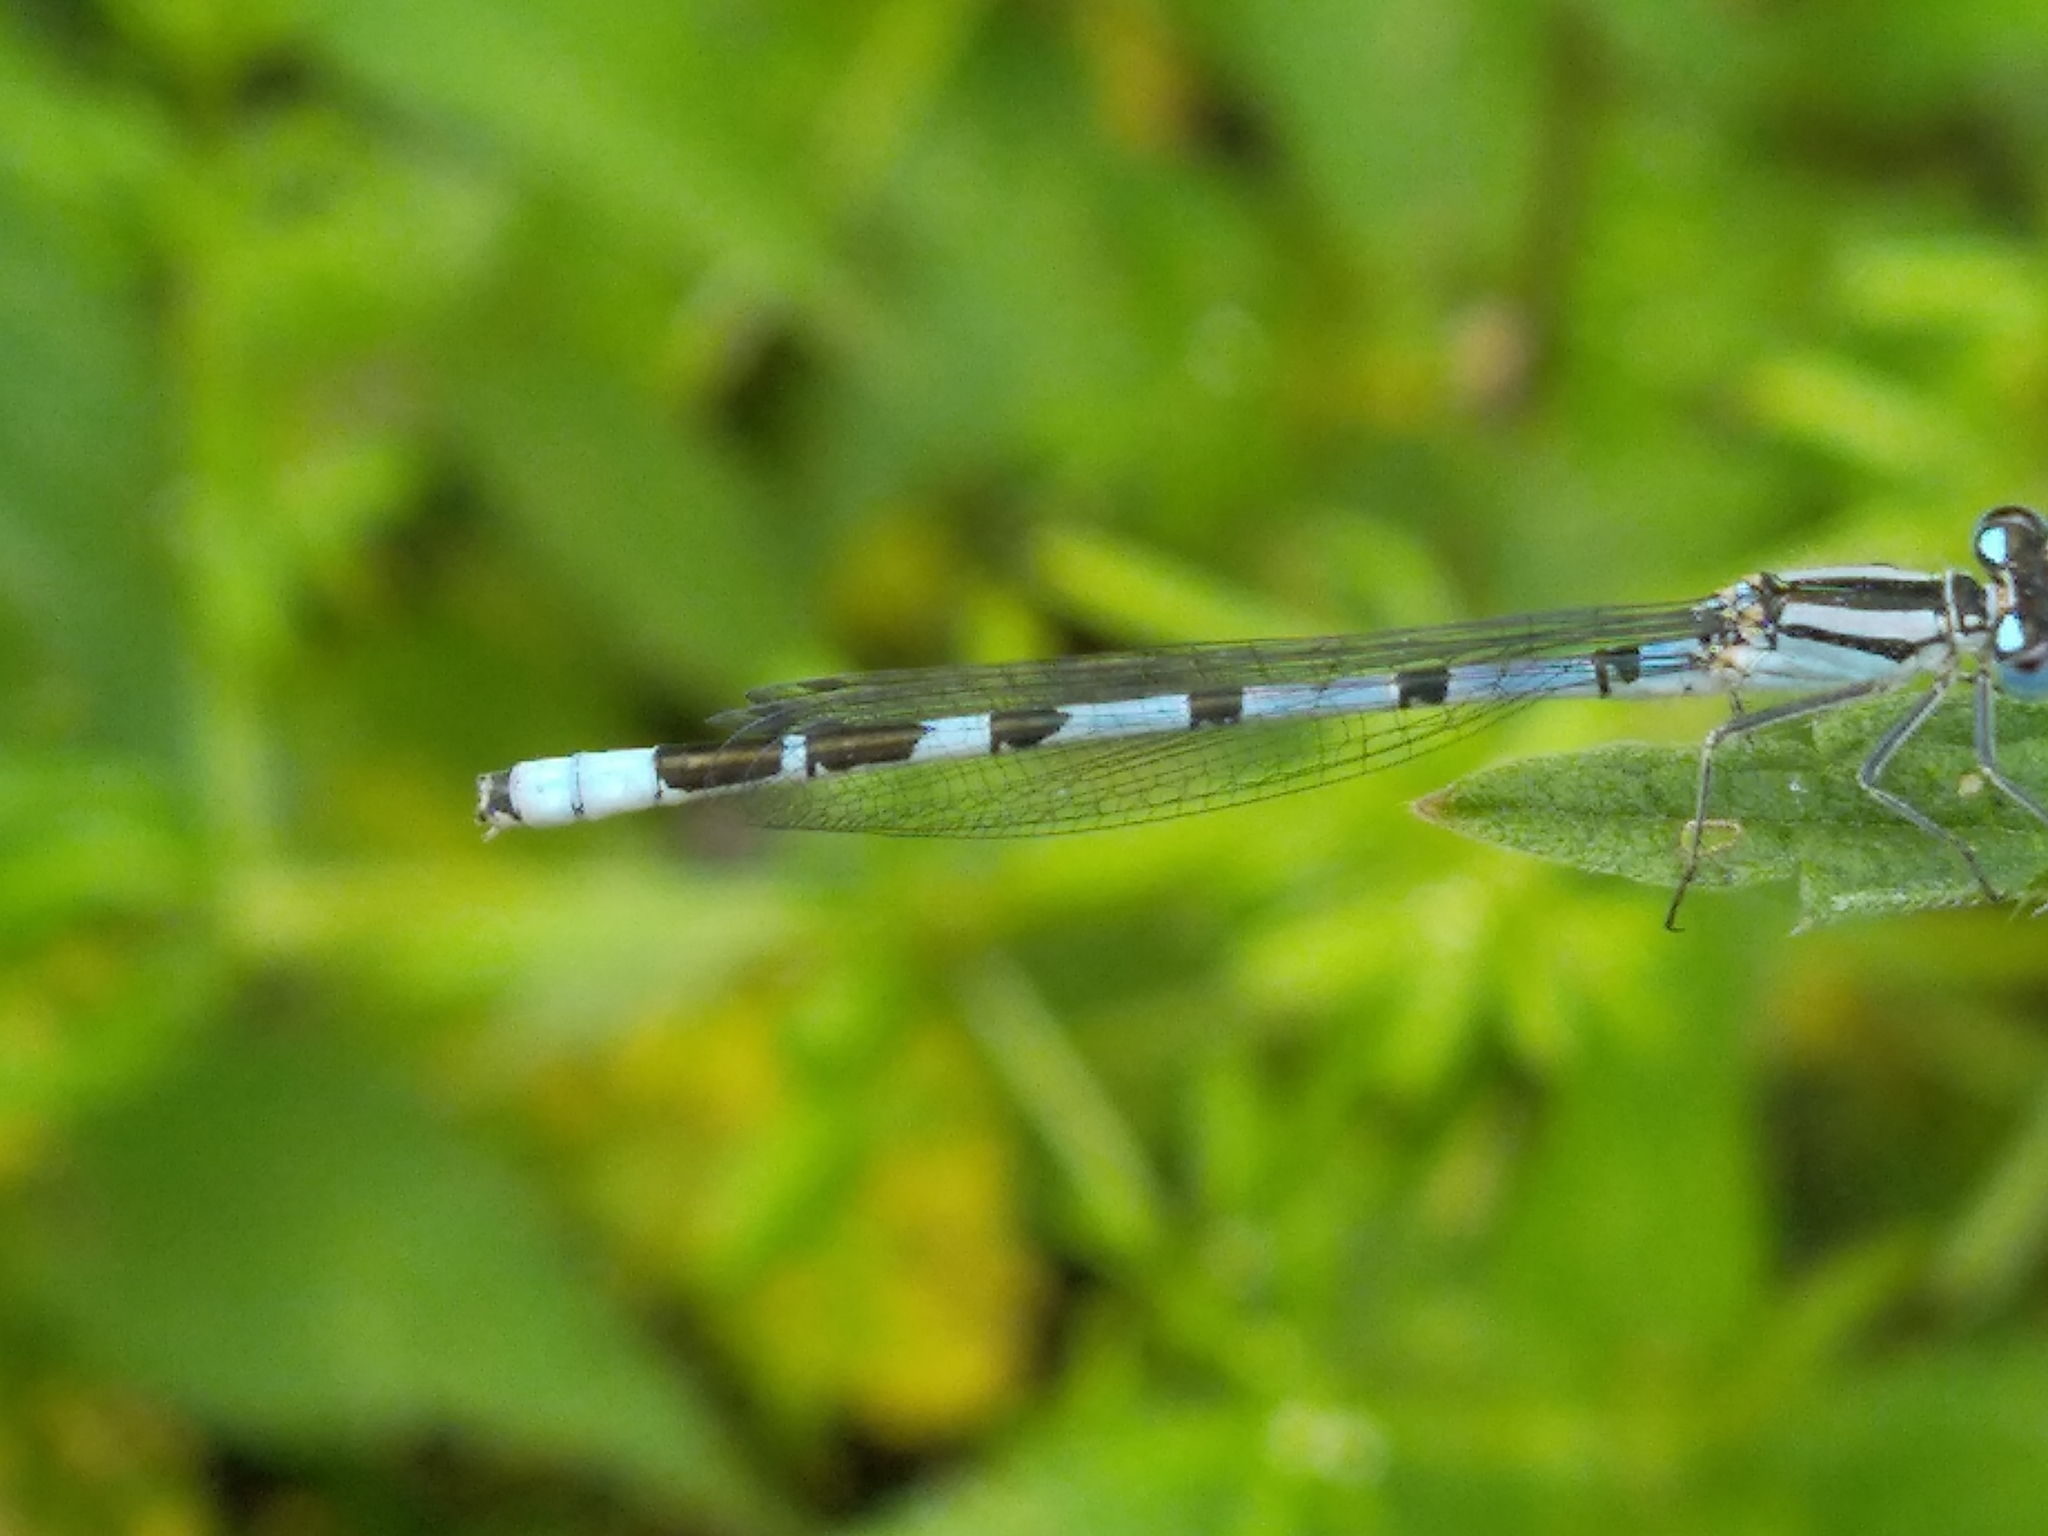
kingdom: Animalia
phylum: Arthropoda
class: Insecta
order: Odonata
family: Coenagrionidae
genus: Enallagma
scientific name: Enallagma cyathigerum
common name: Common blue damselfly
